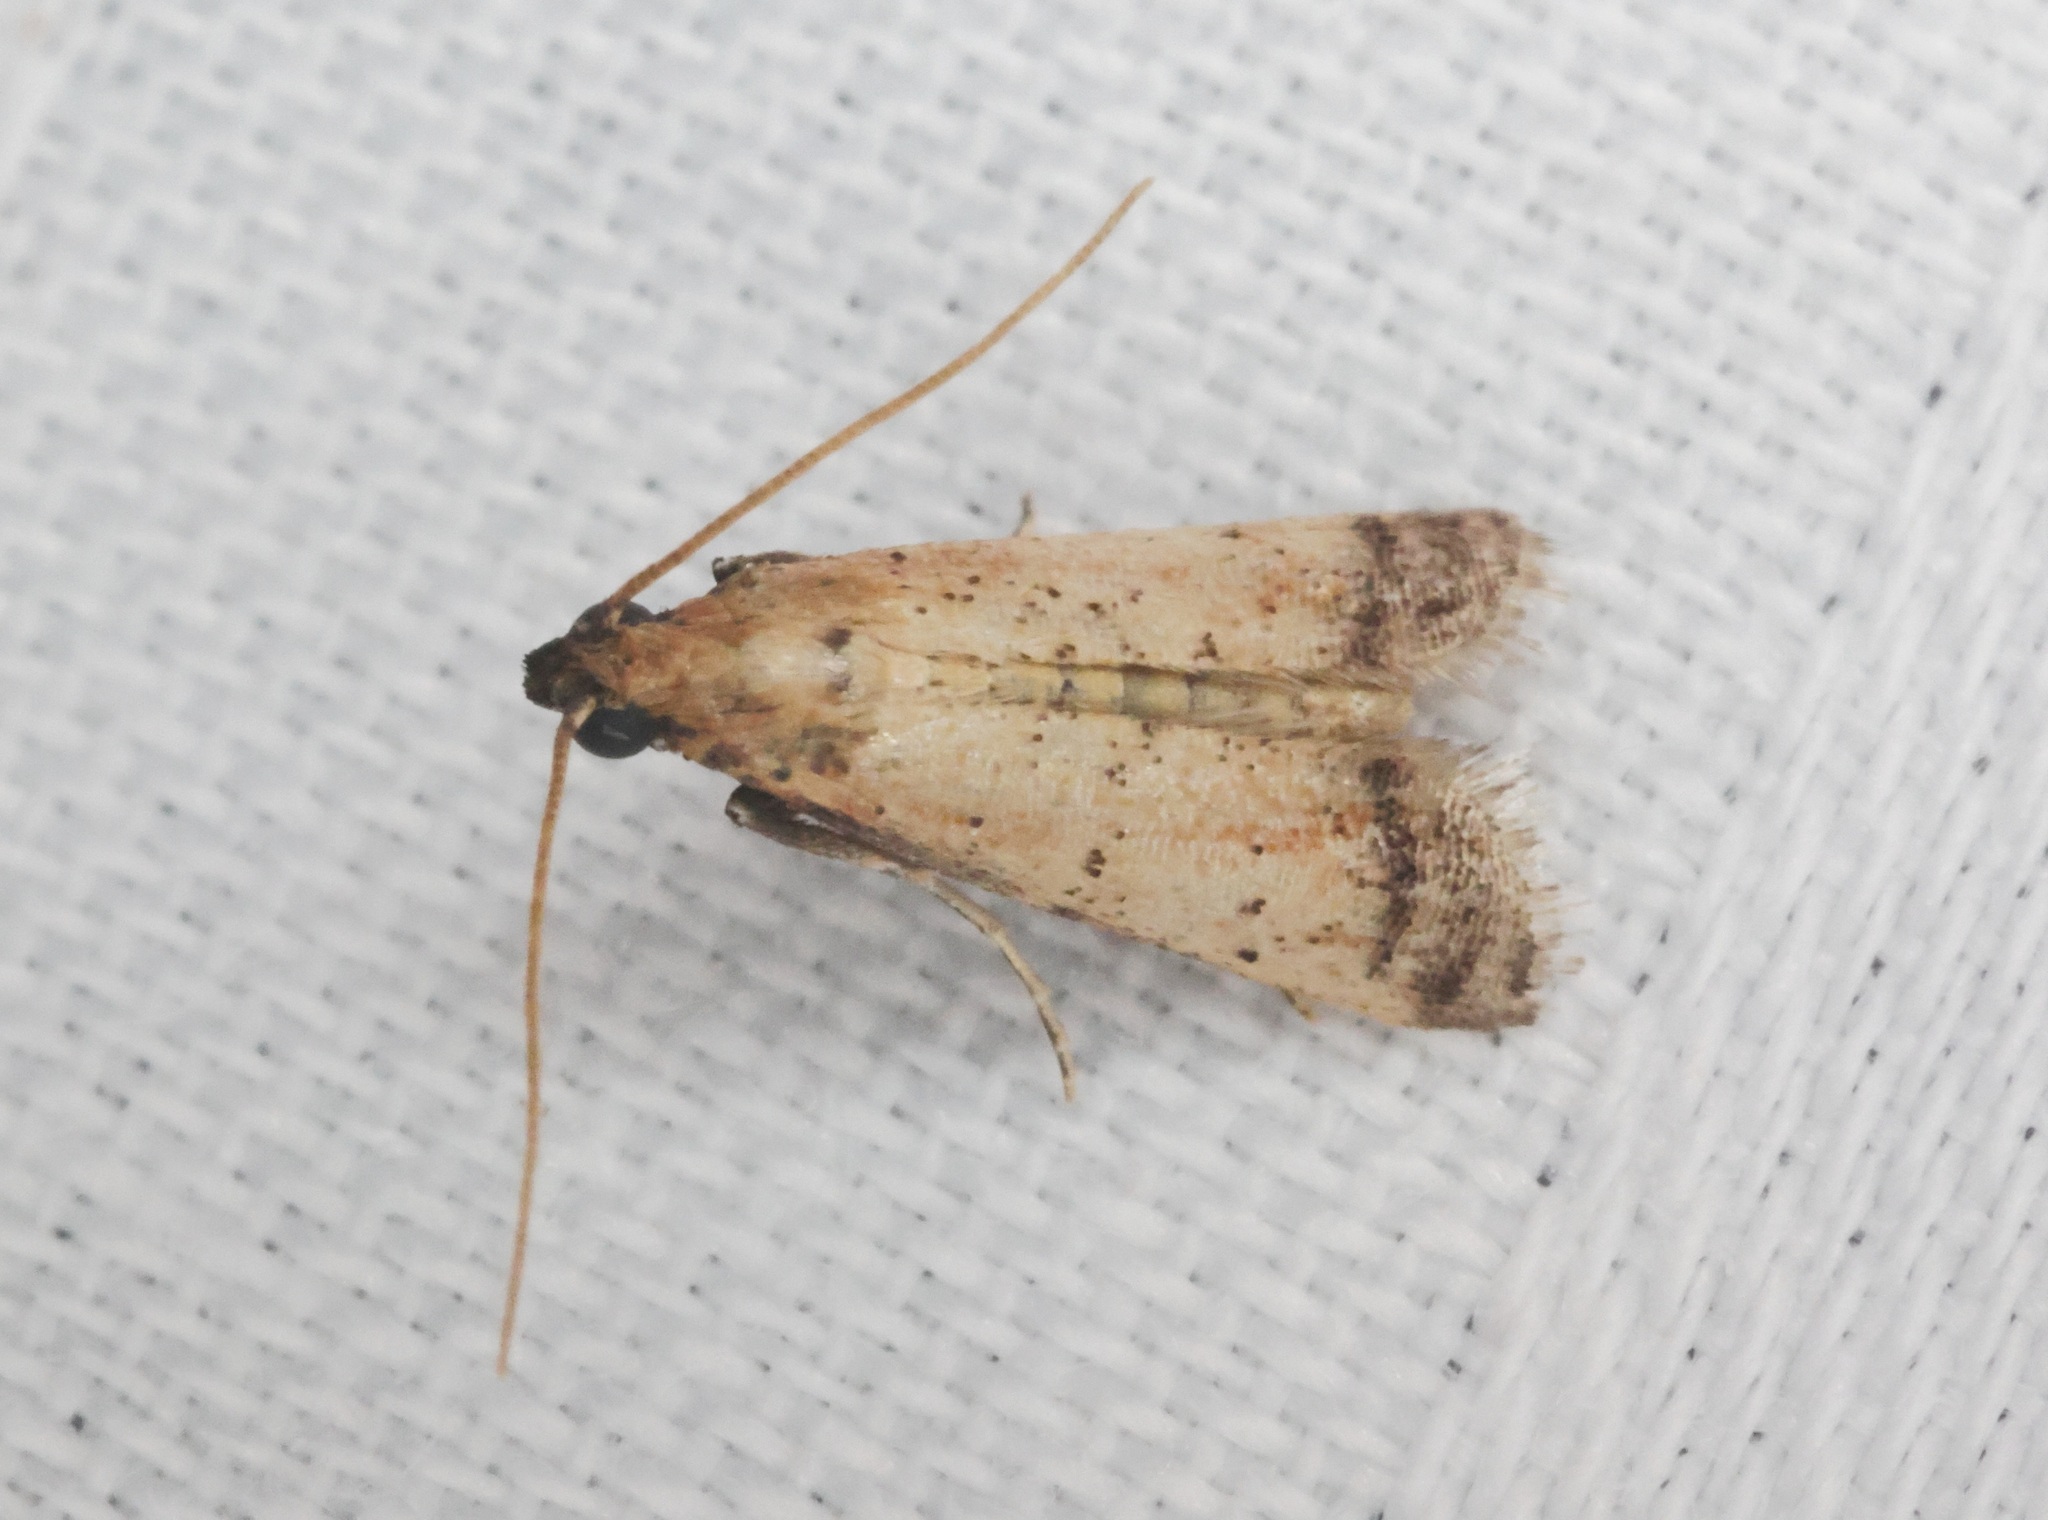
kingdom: Animalia
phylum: Arthropoda
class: Insecta
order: Lepidoptera
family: Pyralidae
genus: Quasipuer
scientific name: Quasipuer colon
